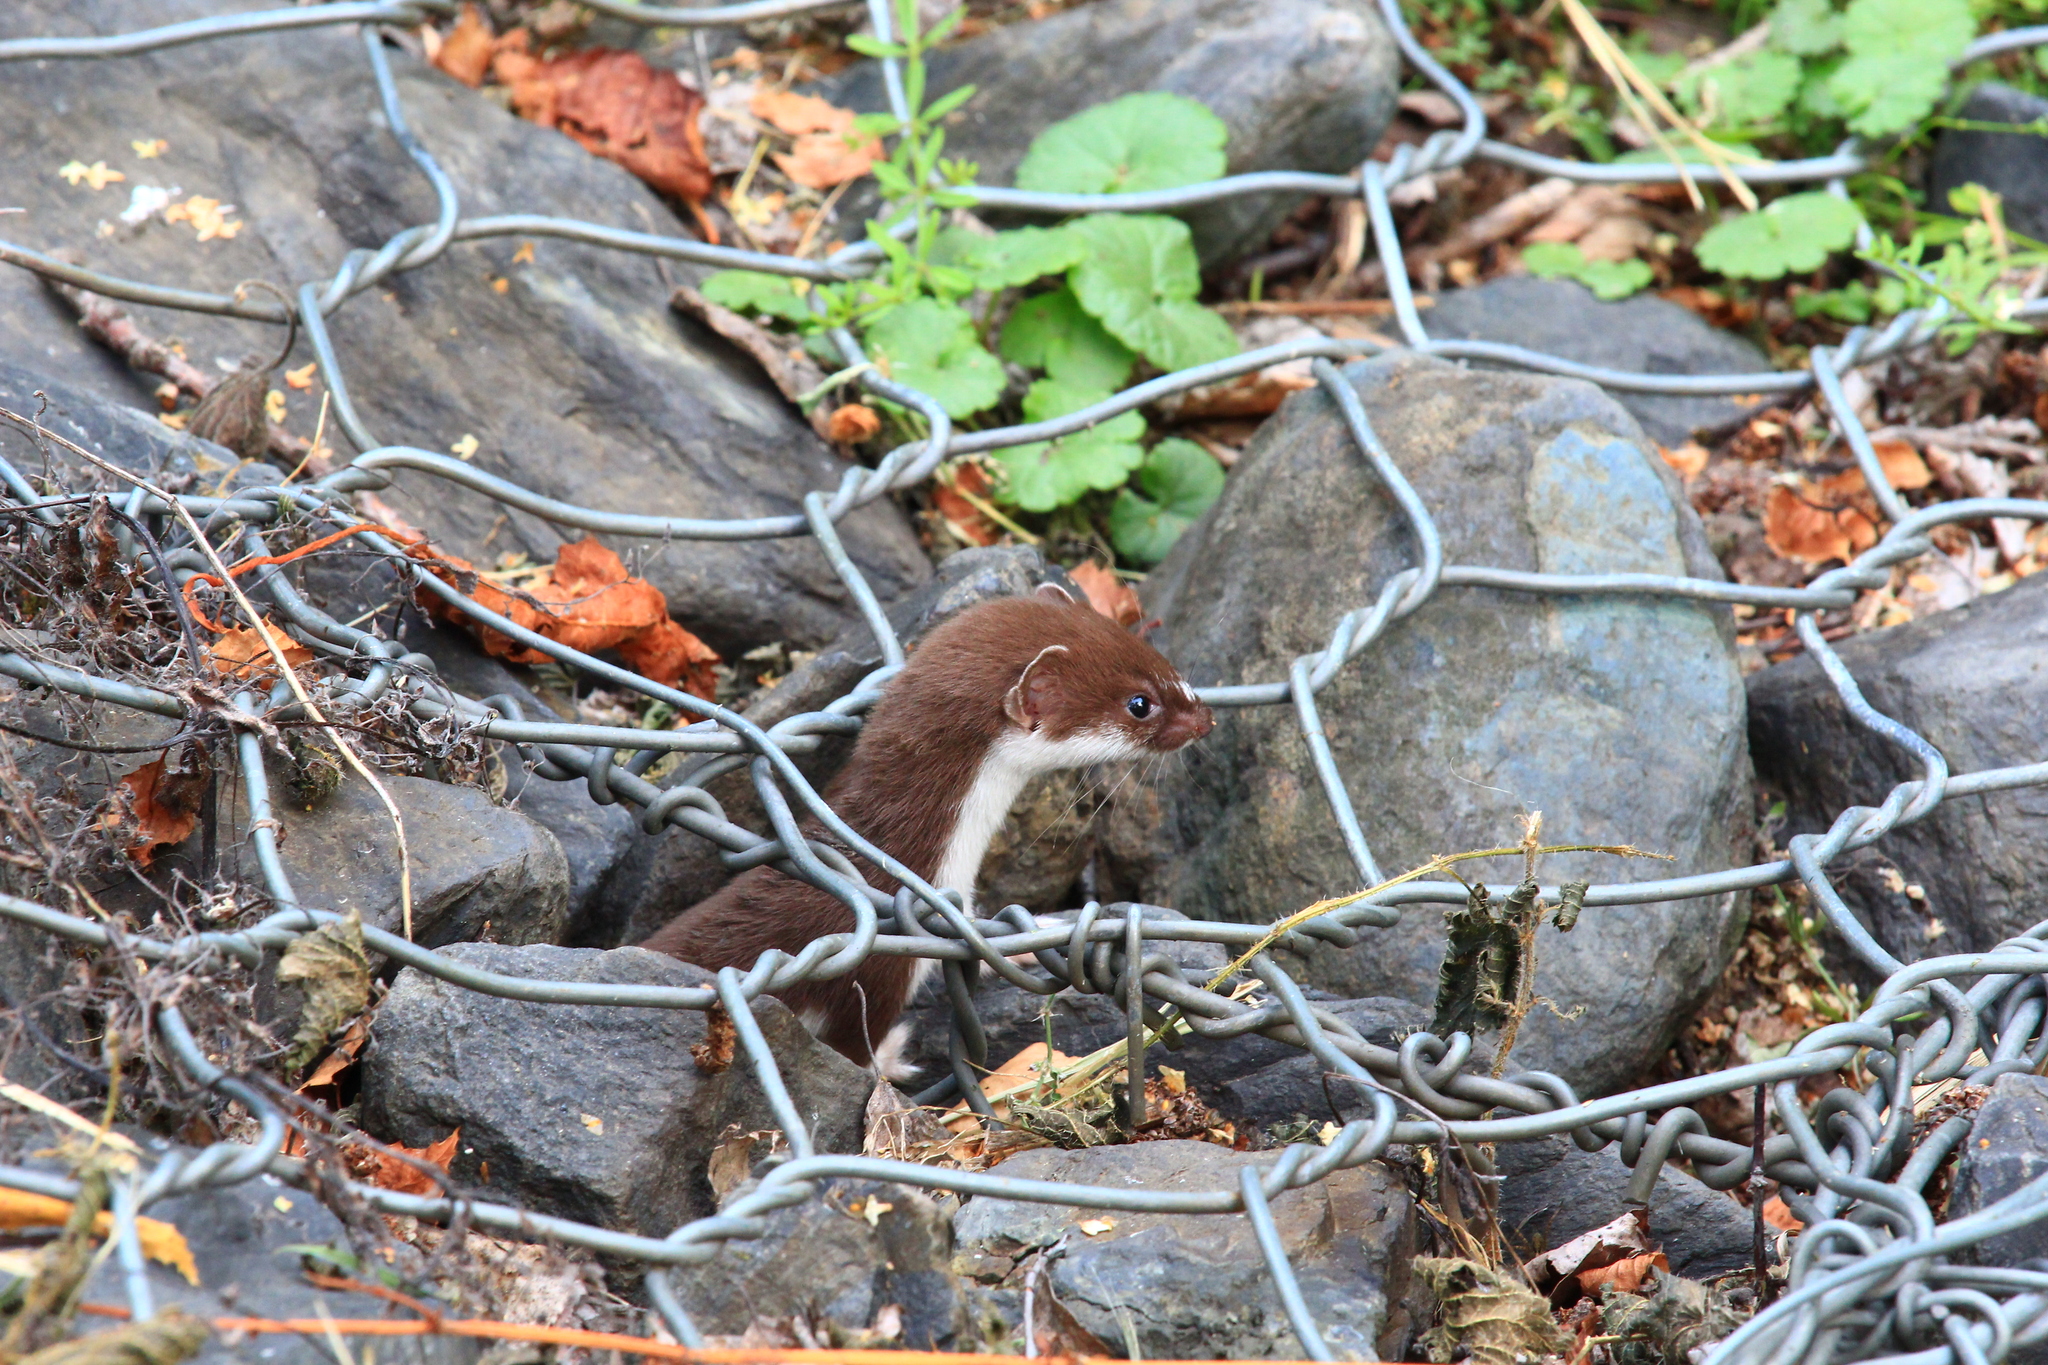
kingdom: Animalia
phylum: Chordata
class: Mammalia
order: Carnivora
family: Mustelidae
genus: Mustela
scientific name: Mustela nivalis
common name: Least weasel
